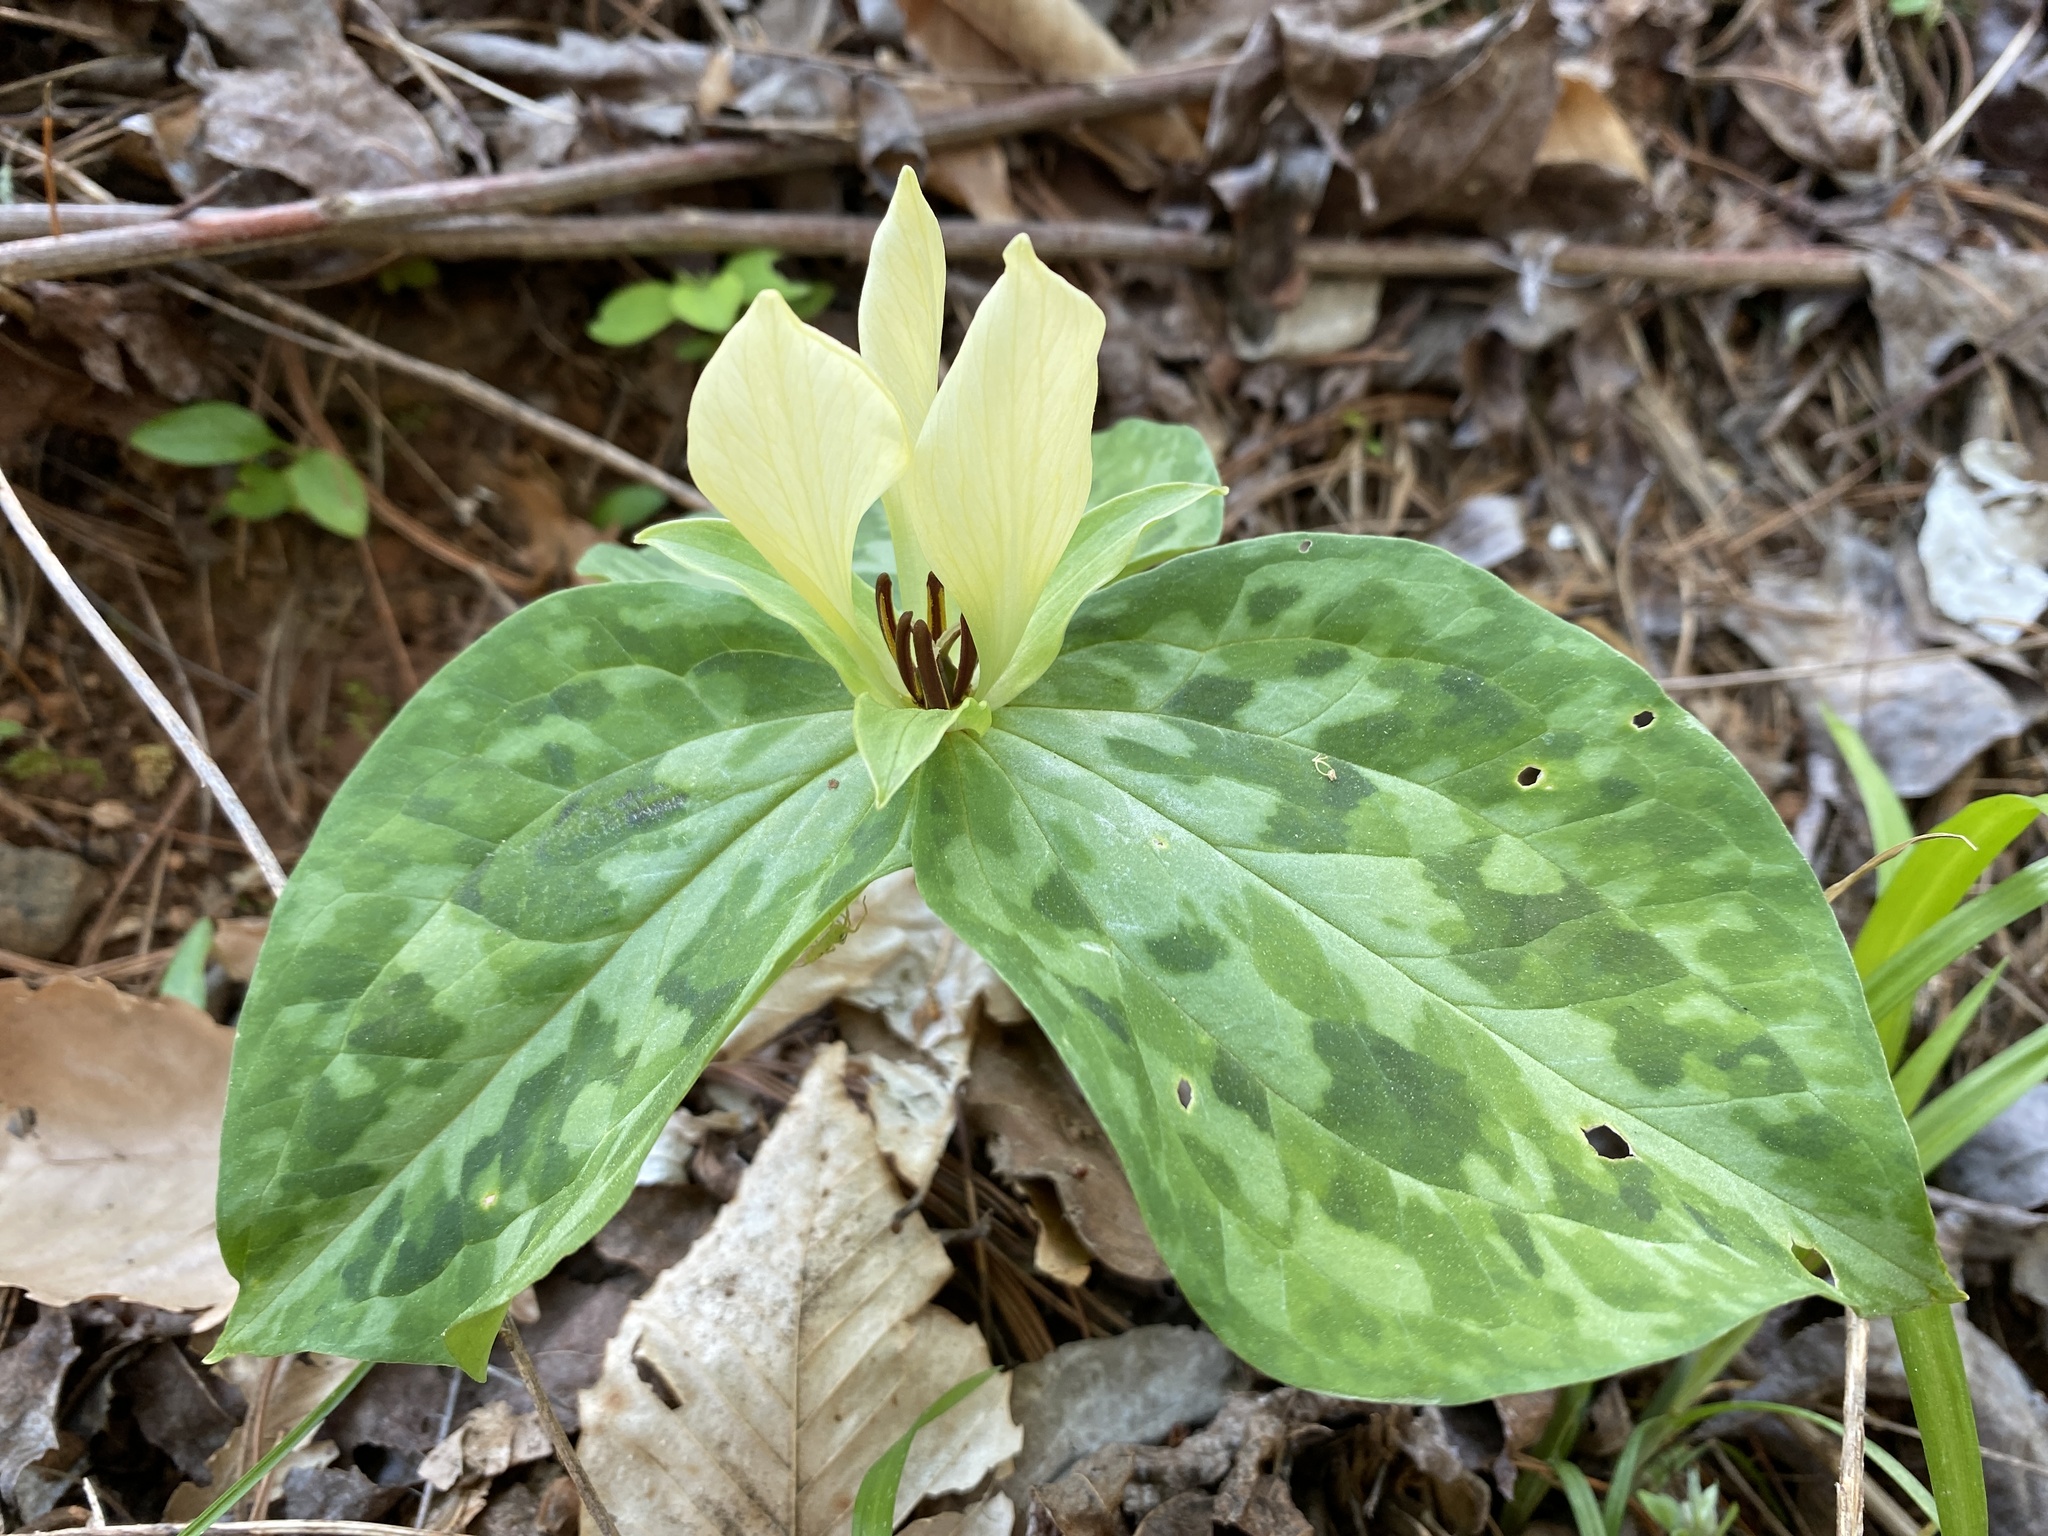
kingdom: Plantae
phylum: Tracheophyta
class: Liliopsida
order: Liliales
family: Melanthiaceae
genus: Trillium
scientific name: Trillium discolor
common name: Faded trillium
